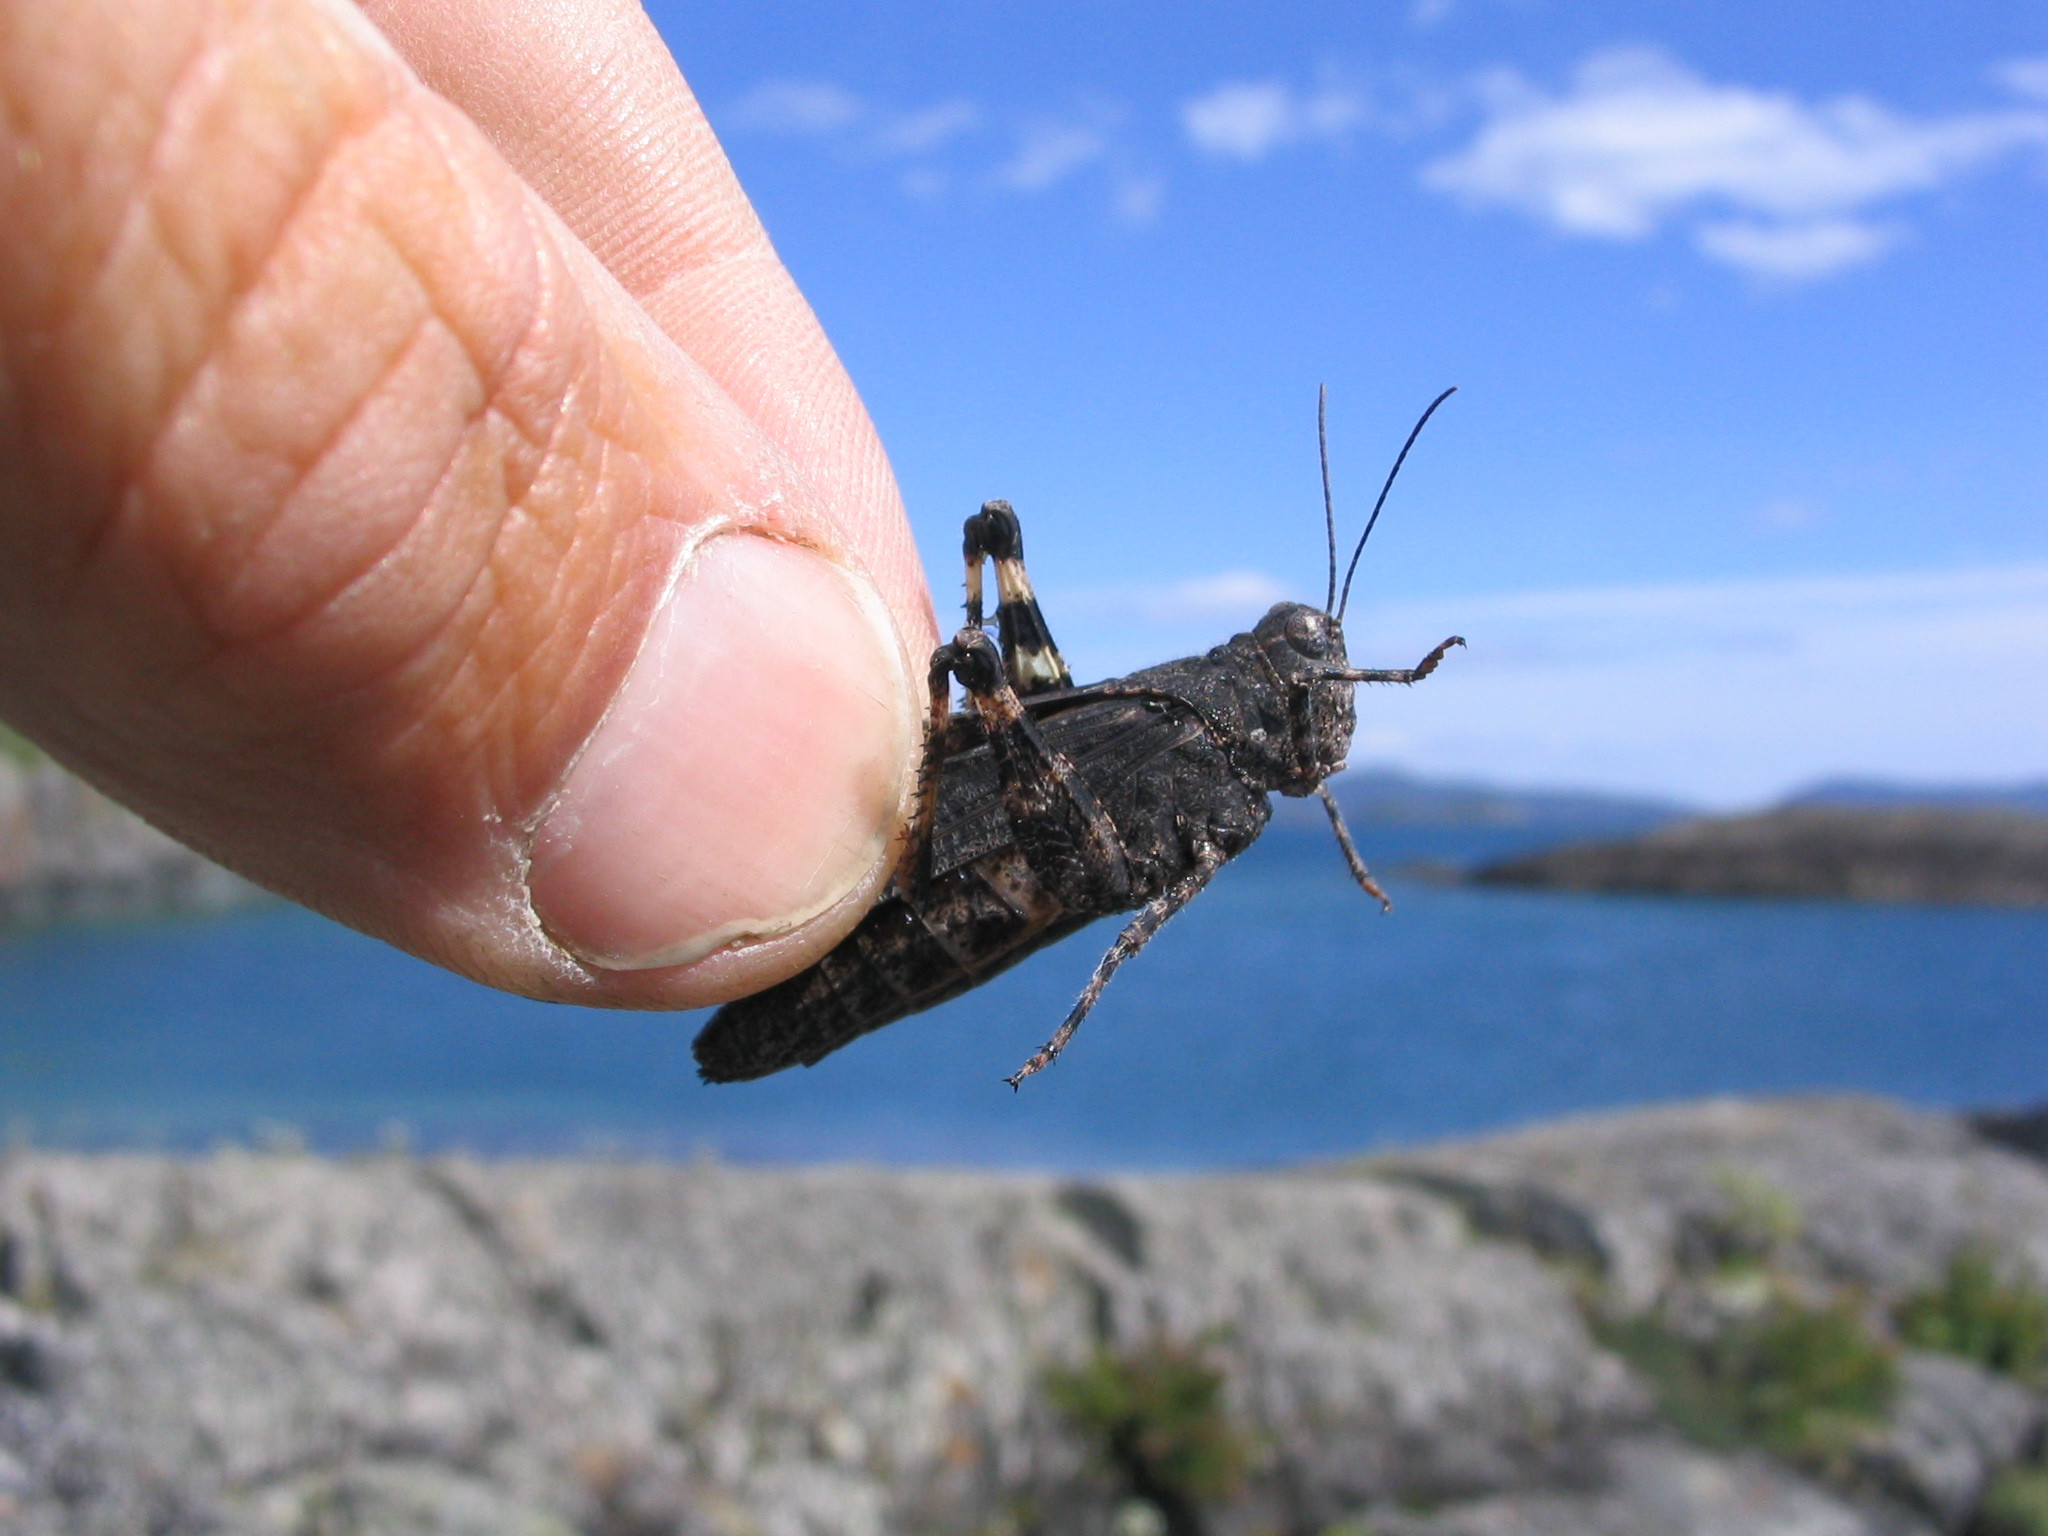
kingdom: Animalia
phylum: Arthropoda
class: Insecta
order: Orthoptera
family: Acrididae
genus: Trimerotropis
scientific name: Trimerotropis verruculata
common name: Crackling forest grasshopper
